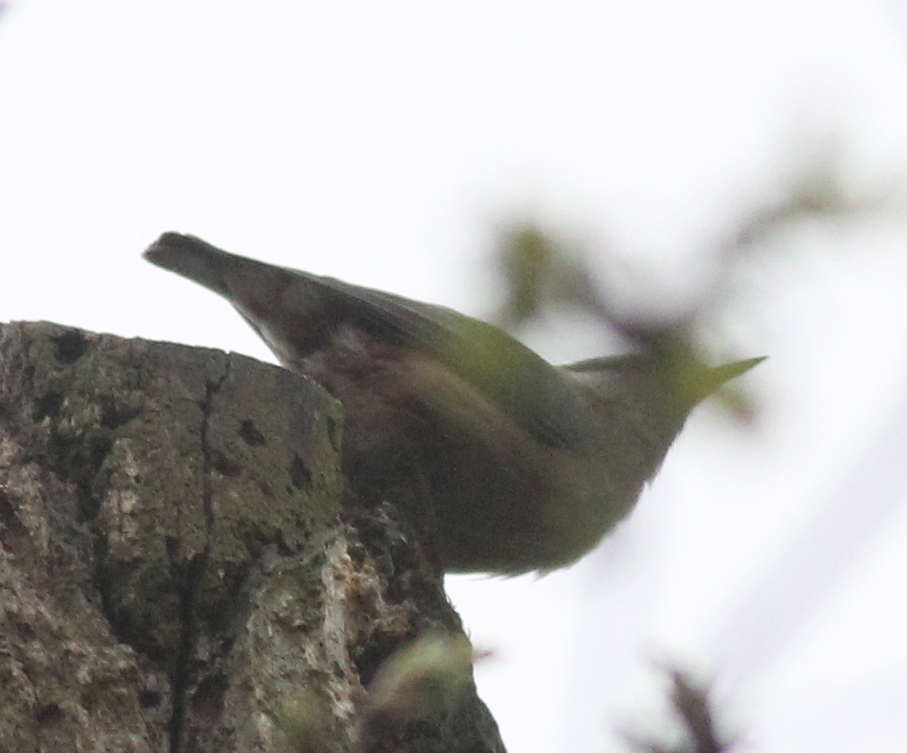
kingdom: Animalia
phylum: Chordata
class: Aves
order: Passeriformes
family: Sittidae
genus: Sitta
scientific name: Sitta europaea
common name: Eurasian nuthatch
